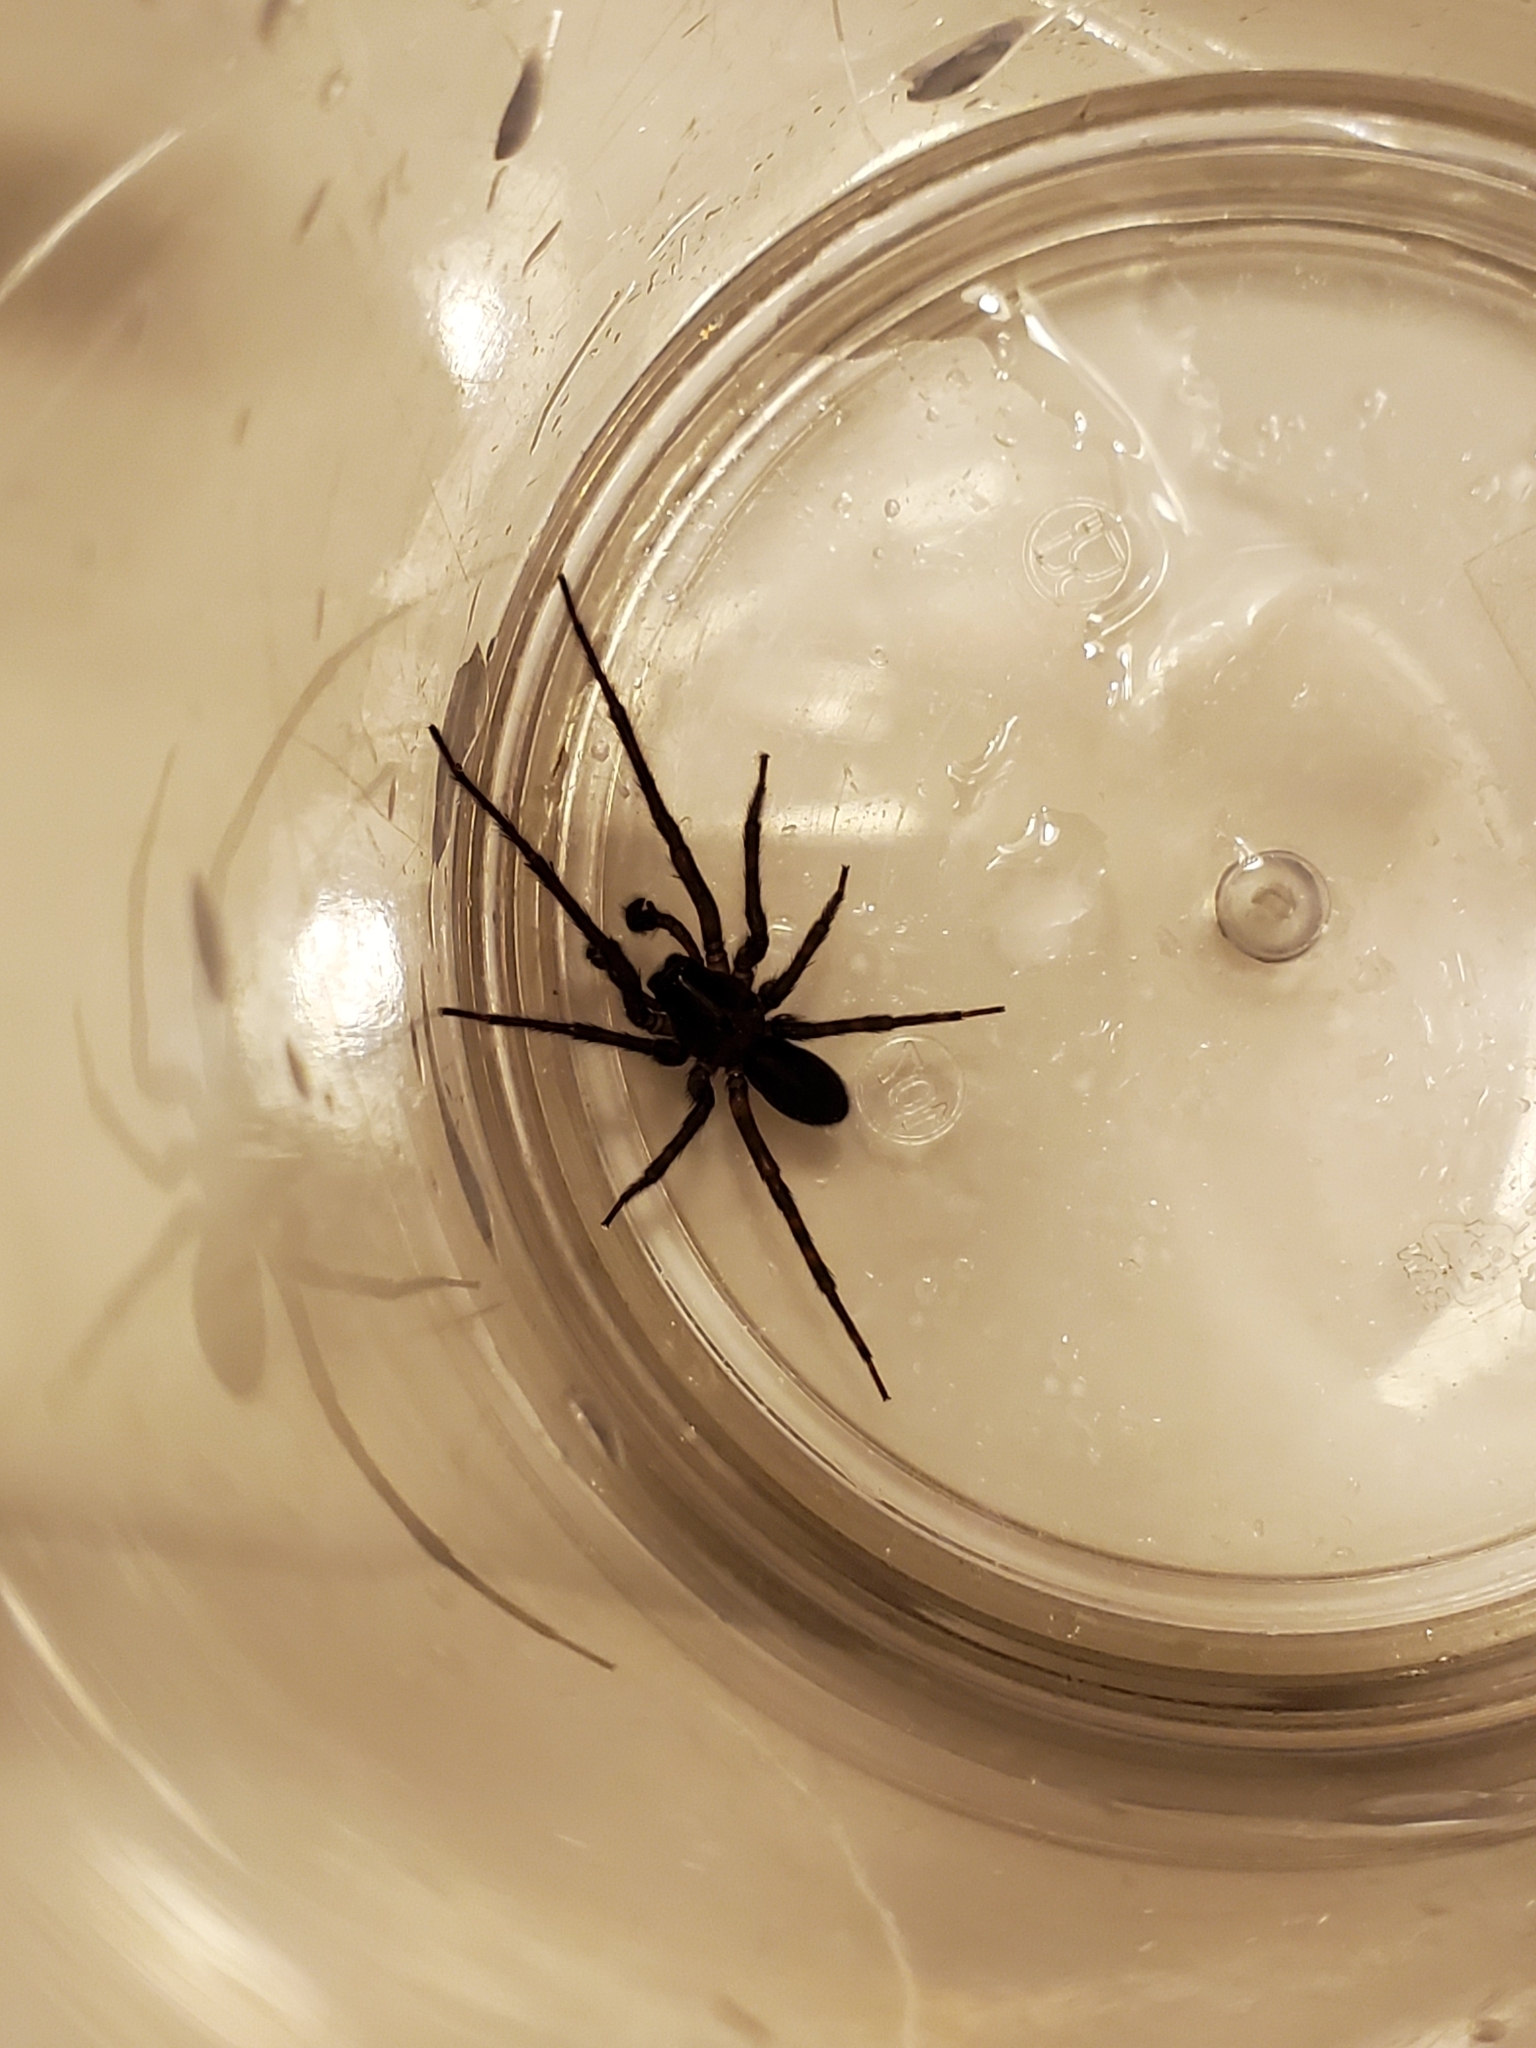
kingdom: Animalia
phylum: Arthropoda
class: Arachnida
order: Araneae
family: Amaurobiidae
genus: Amaurobius
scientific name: Amaurobius ferox
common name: Black laceweaver
